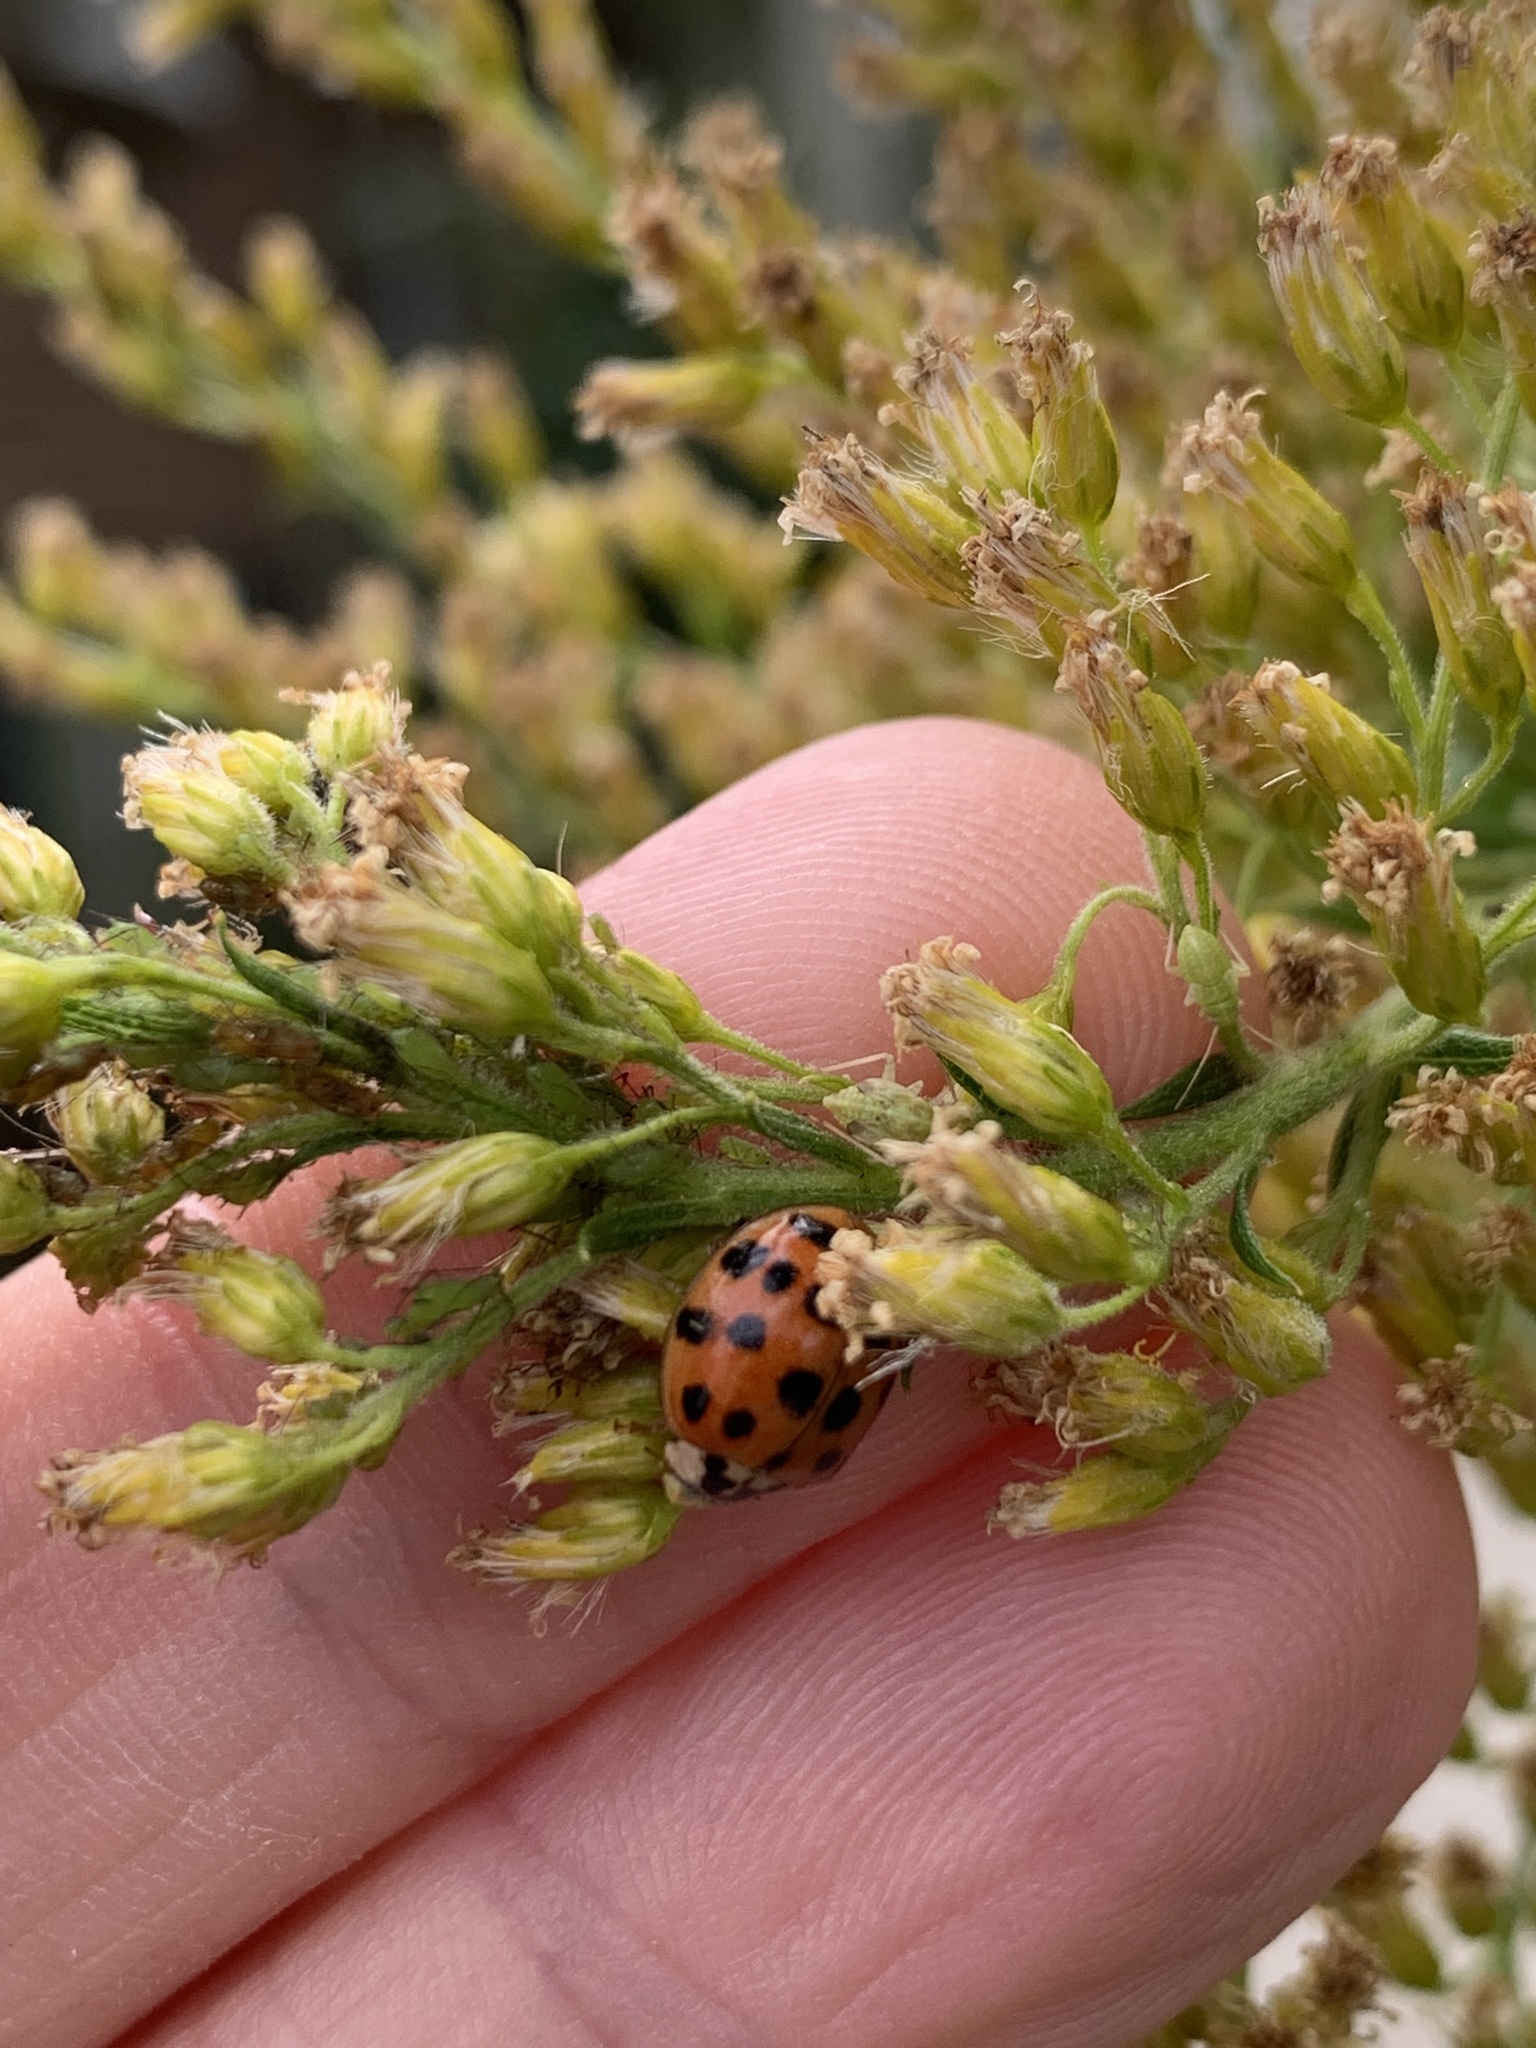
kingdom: Animalia
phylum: Arthropoda
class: Insecta
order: Coleoptera
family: Coccinellidae
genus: Harmonia
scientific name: Harmonia axyridis
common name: Harlequin ladybird
